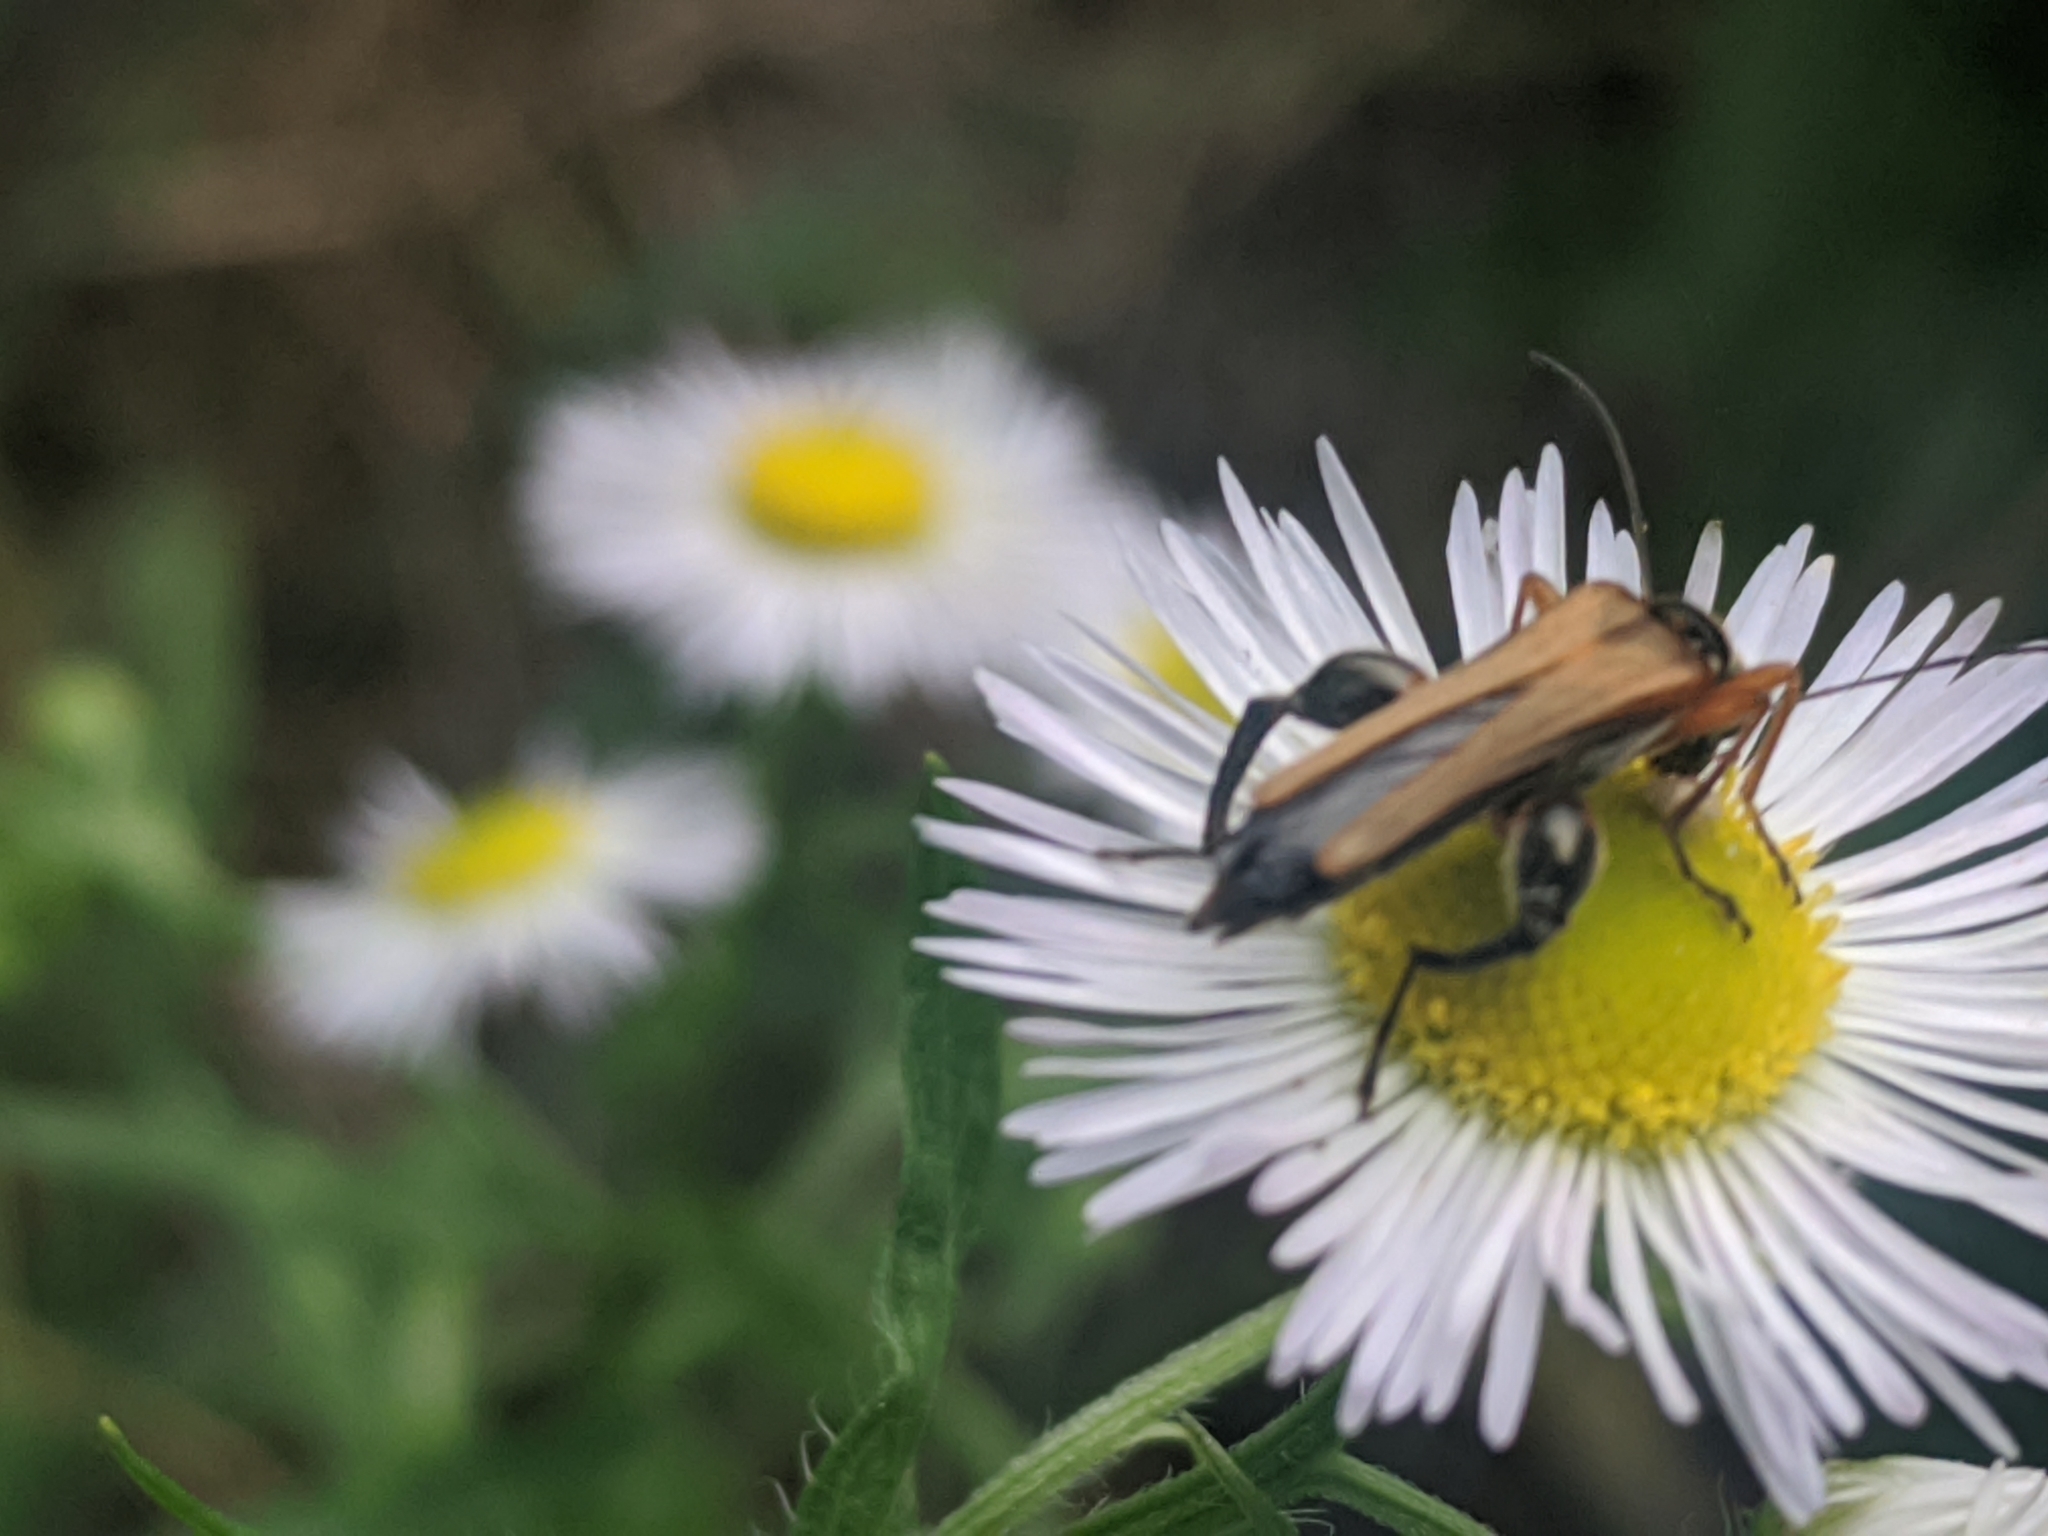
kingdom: Animalia
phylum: Arthropoda
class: Insecta
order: Coleoptera
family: Oedemeridae
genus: Oedemera
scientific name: Oedemera podagrariae
